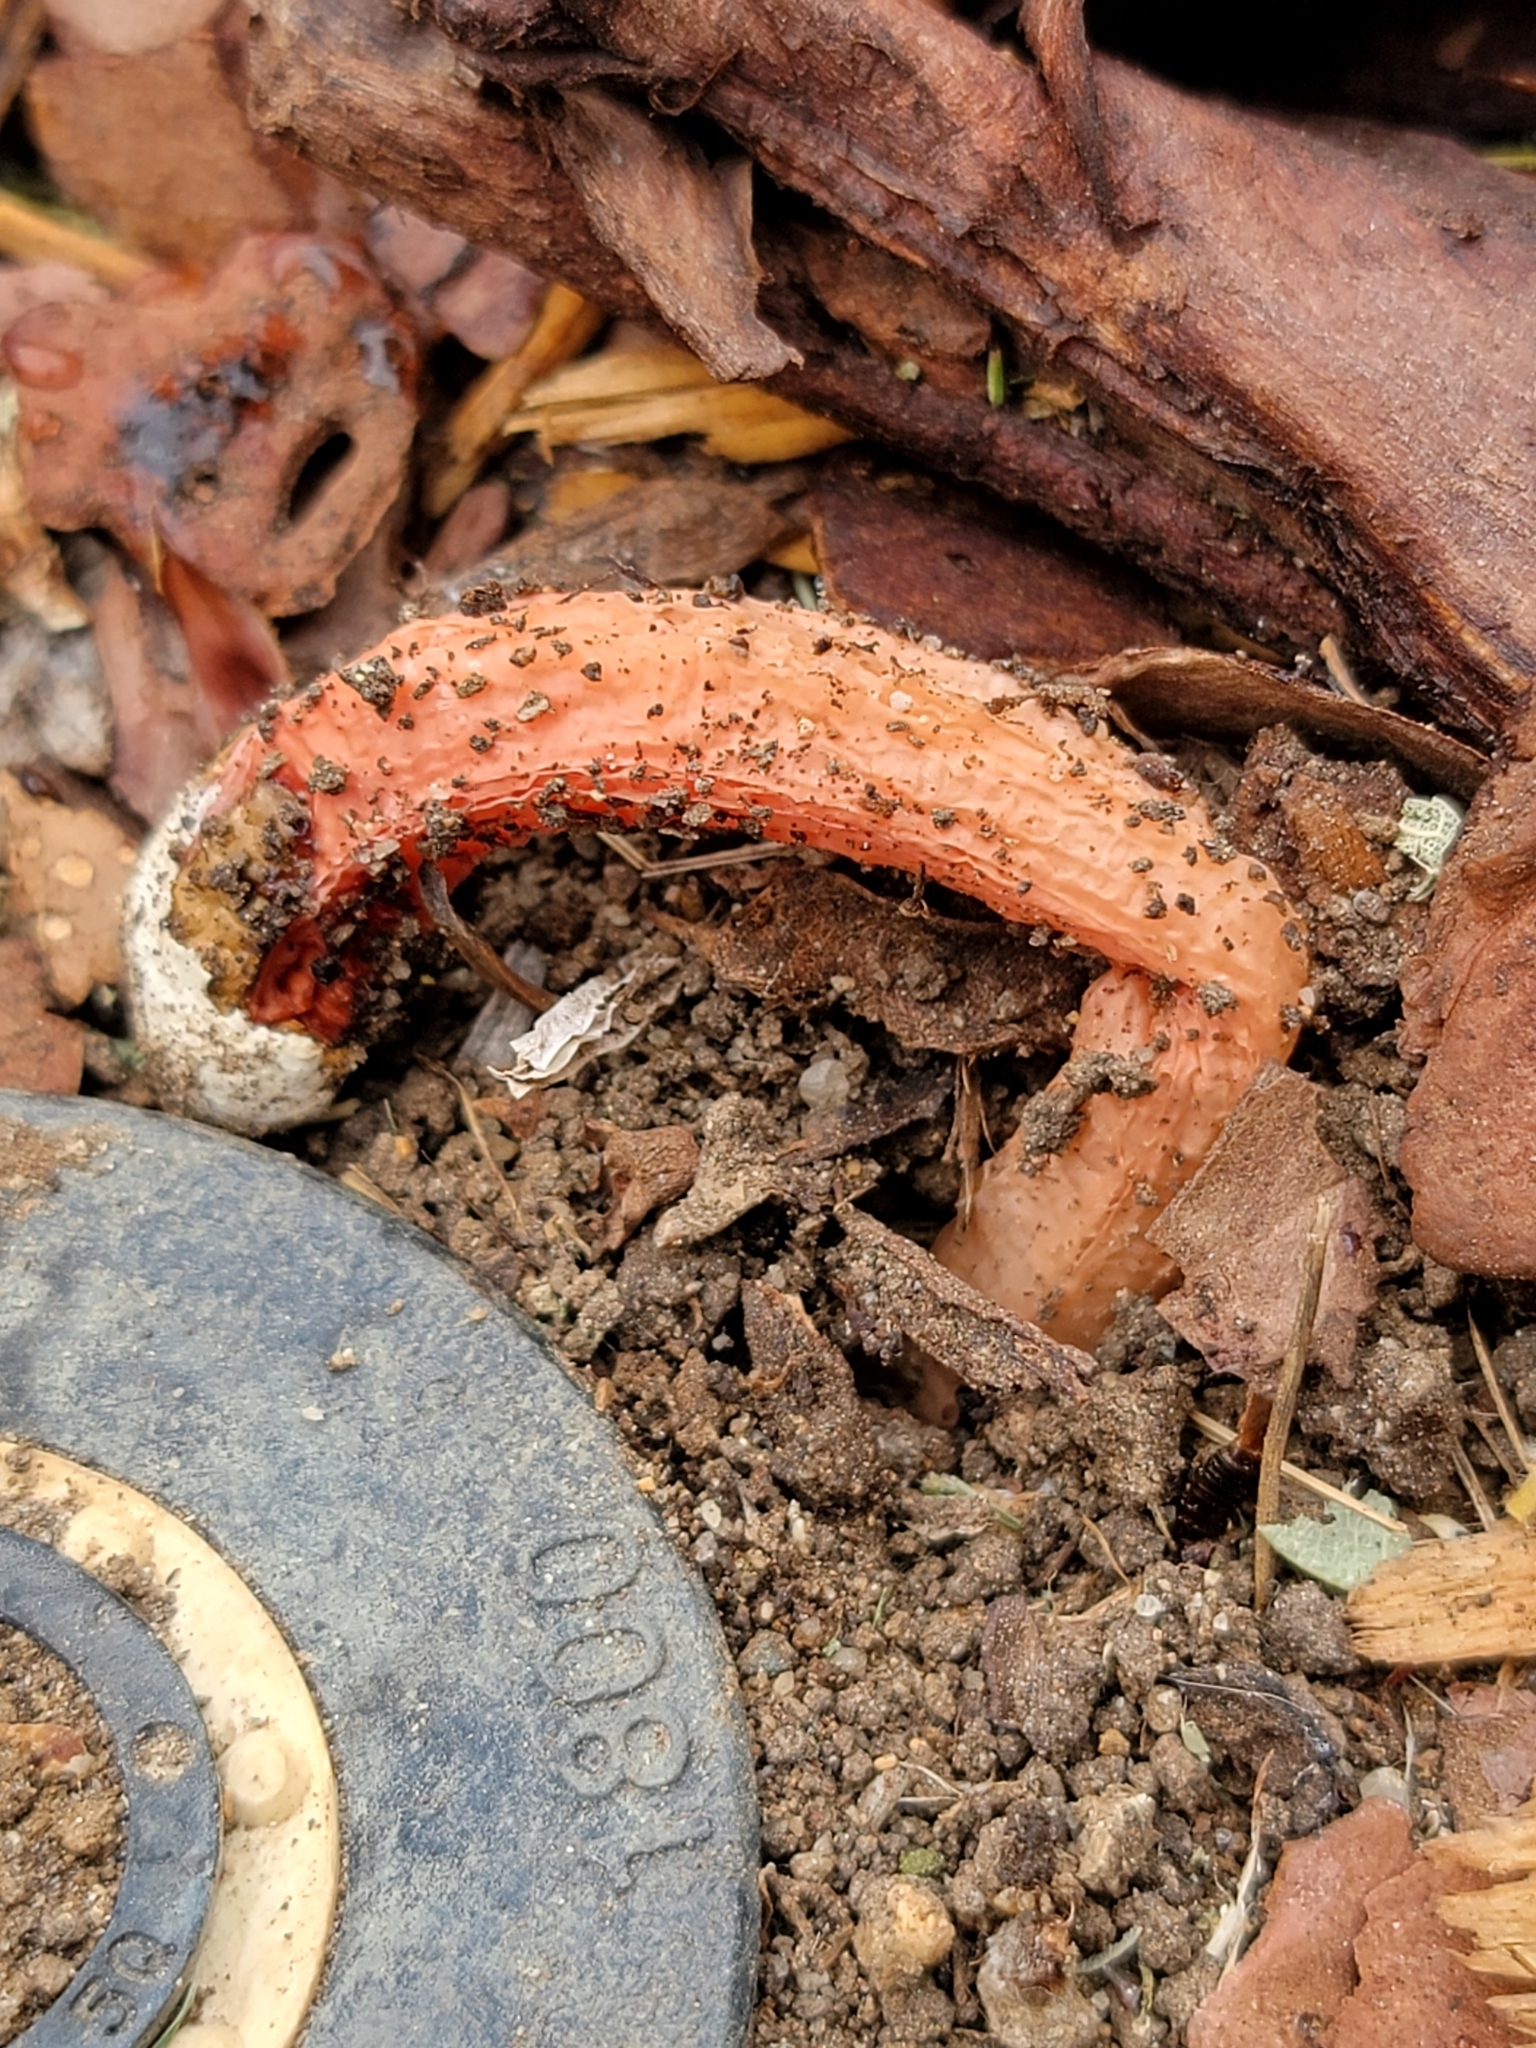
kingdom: Fungi
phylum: Basidiomycota
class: Agaricomycetes
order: Phallales
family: Phallaceae
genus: Lysurus
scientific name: Lysurus mokusin
